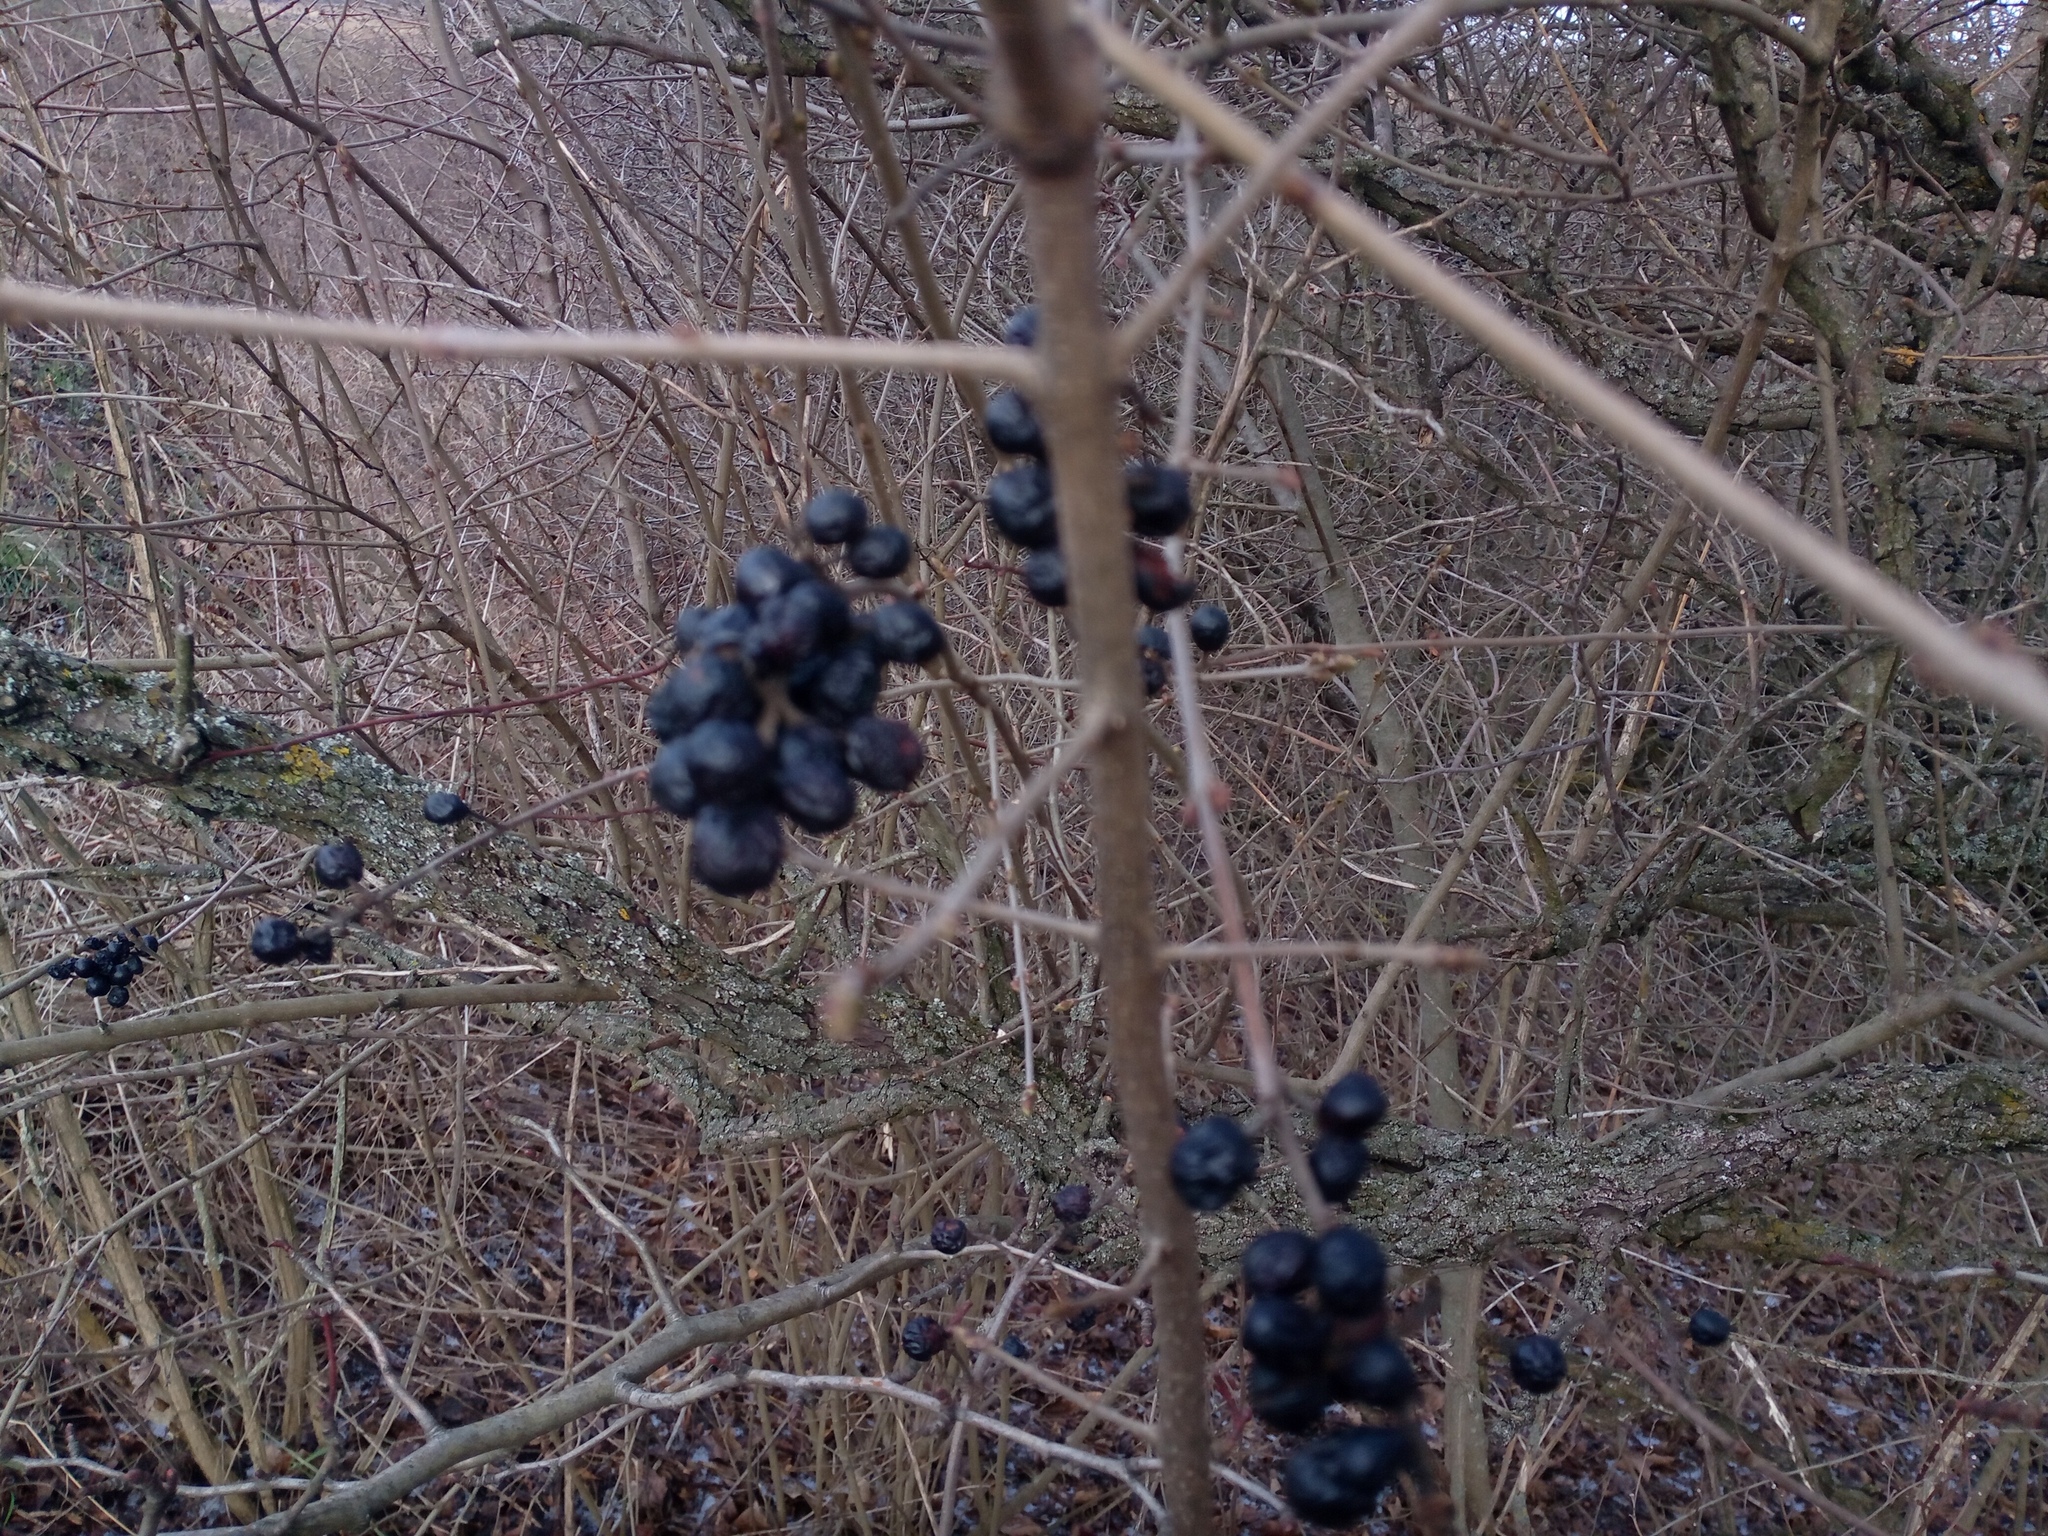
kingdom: Plantae
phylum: Tracheophyta
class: Magnoliopsida
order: Lamiales
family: Oleaceae
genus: Ligustrum
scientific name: Ligustrum vulgare
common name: Wild privet
